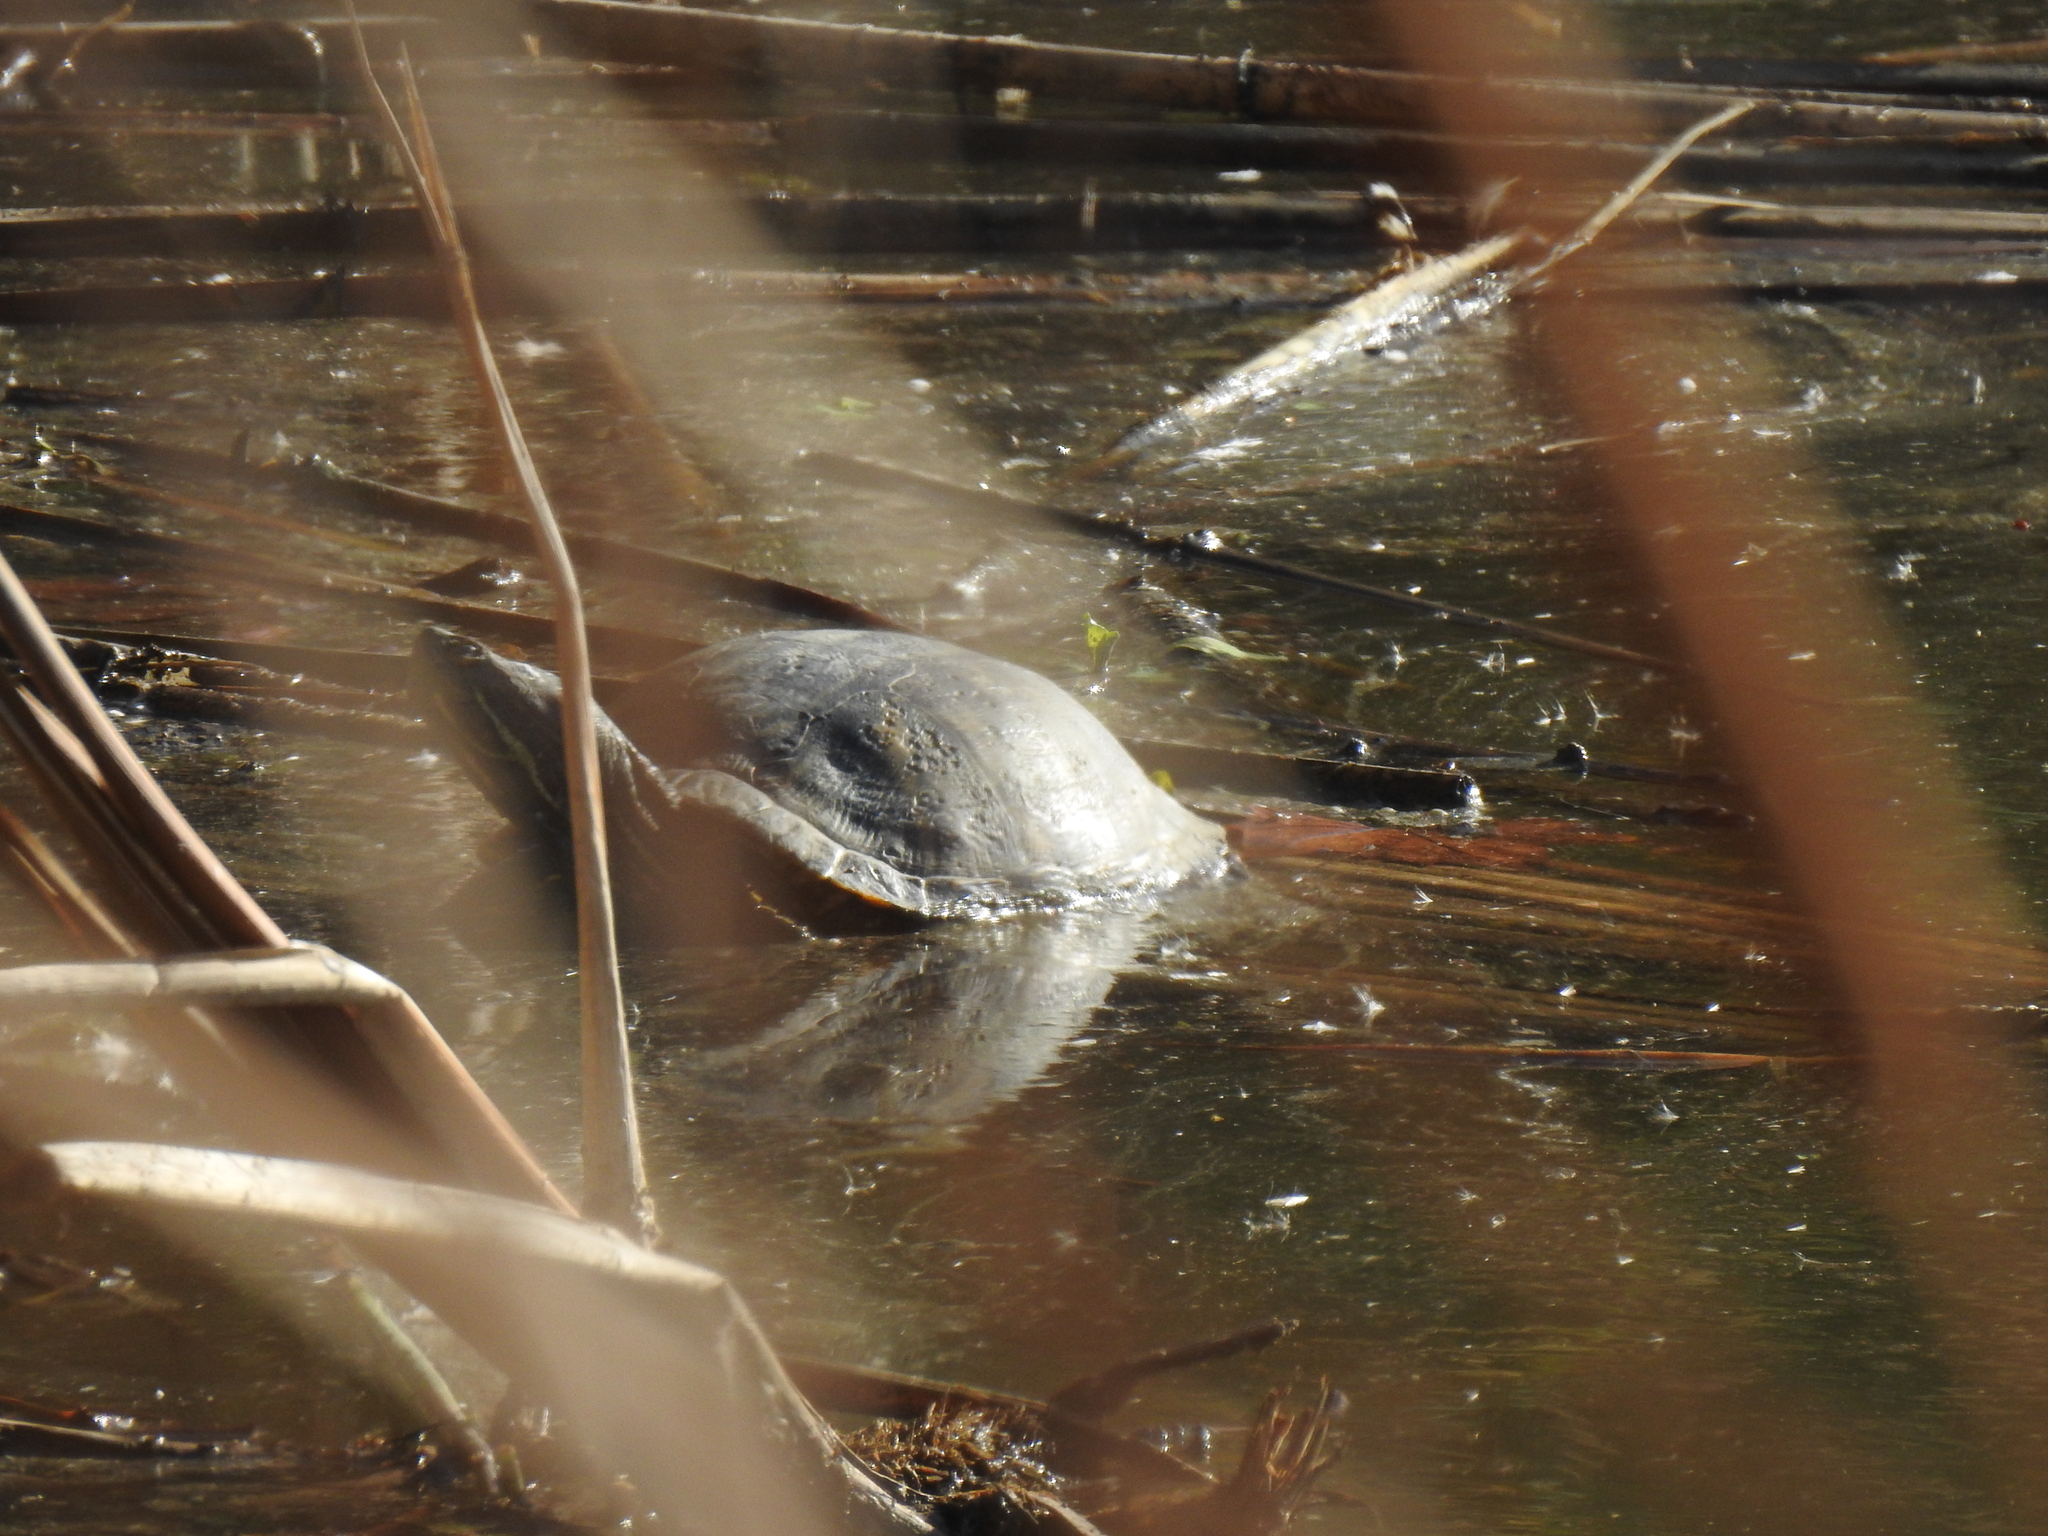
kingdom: Animalia
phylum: Chordata
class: Testudines
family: Emydidae
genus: Trachemys
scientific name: Trachemys scripta
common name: Slider
